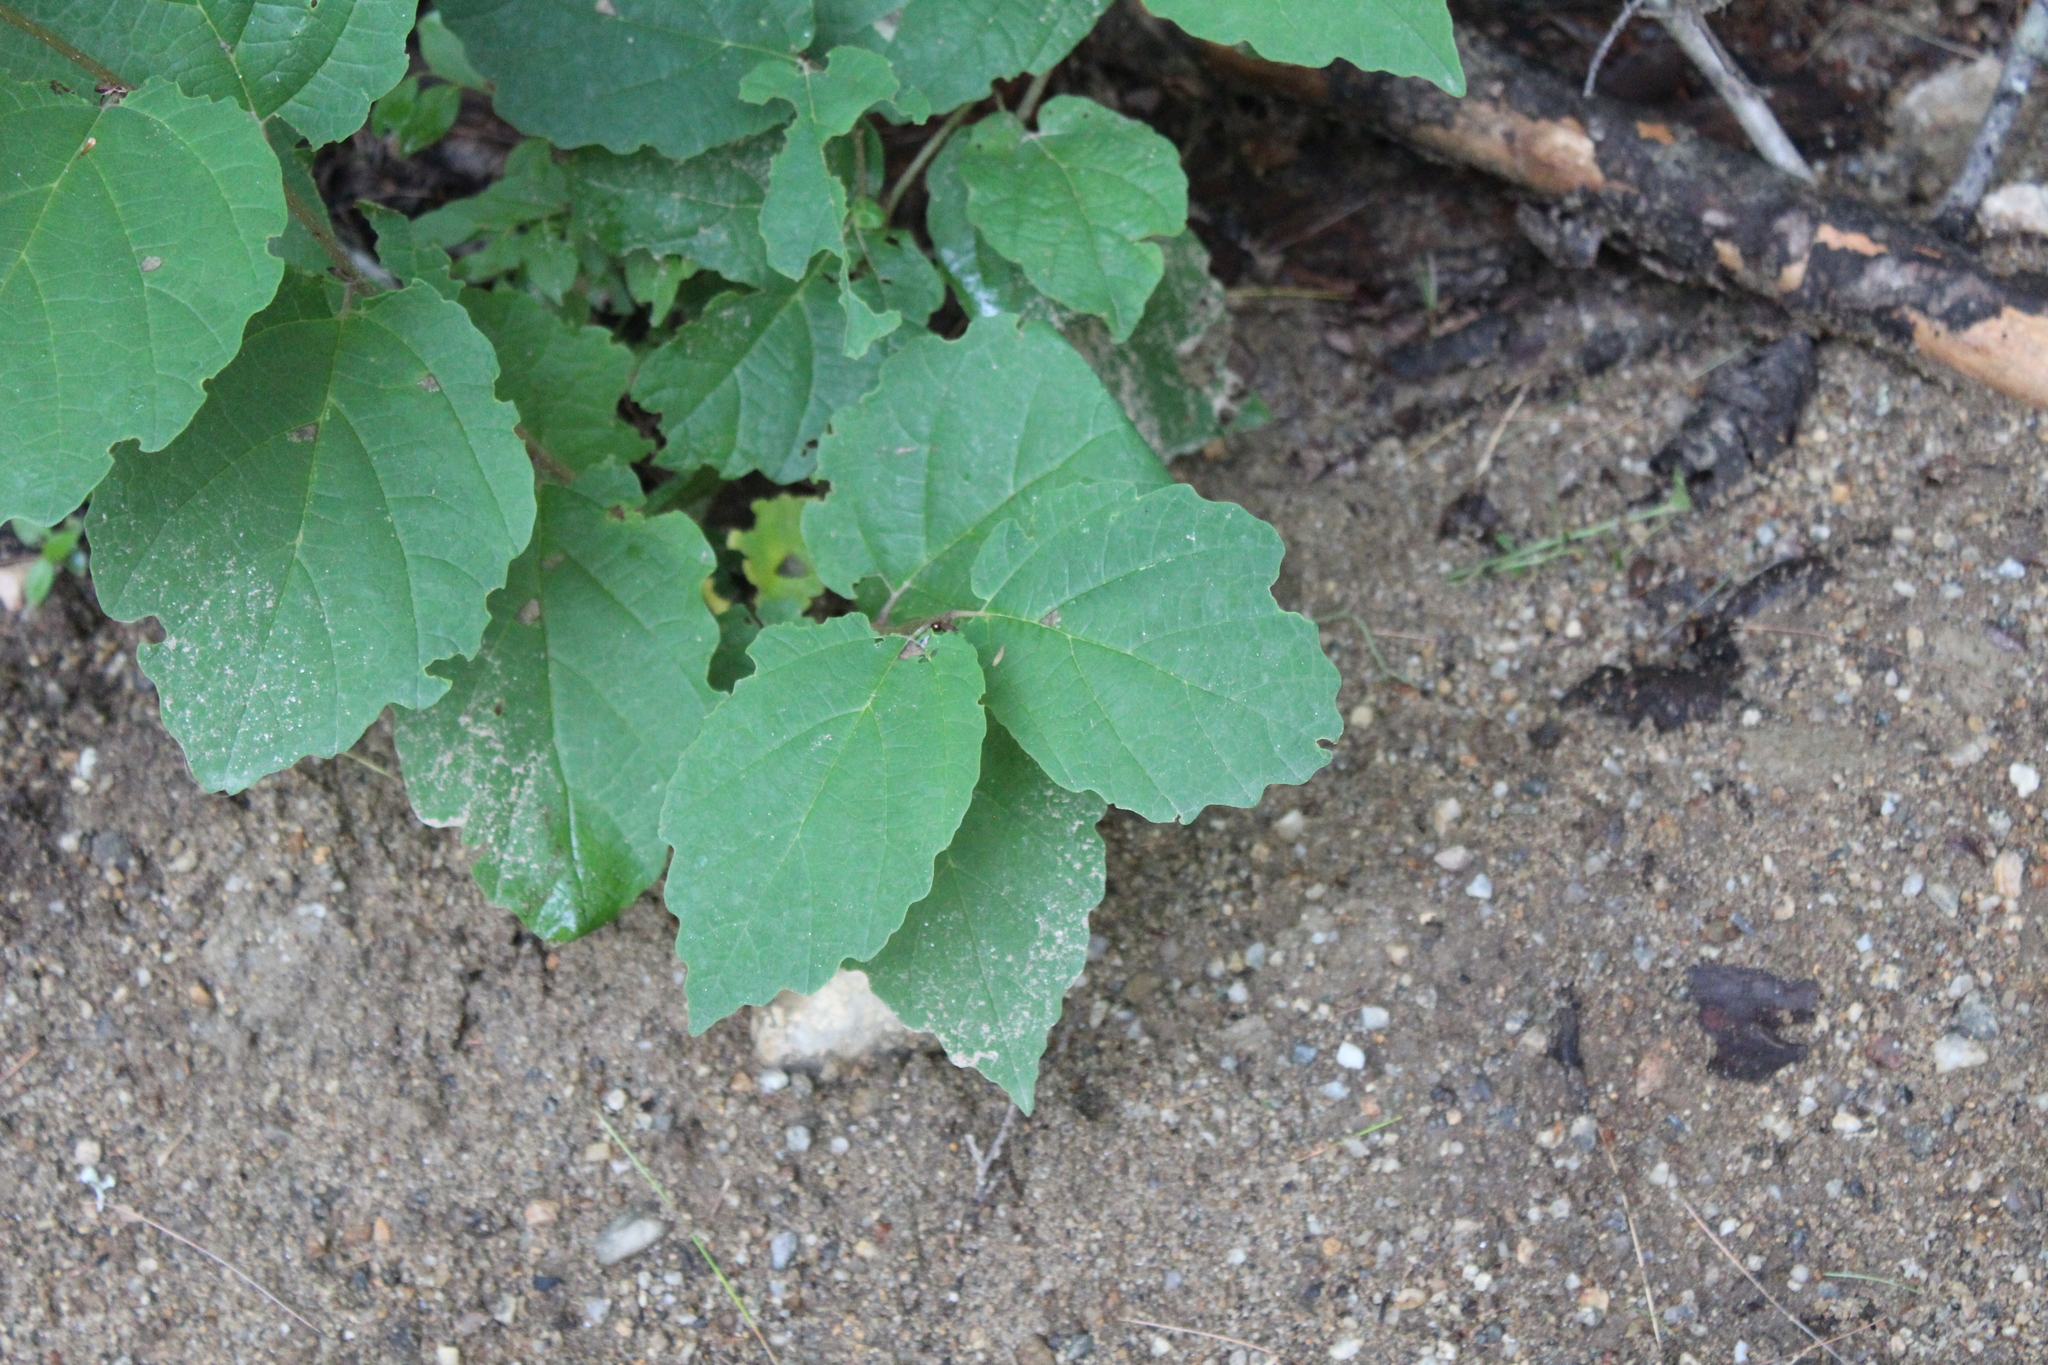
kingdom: Plantae
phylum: Tracheophyta
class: Magnoliopsida
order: Saxifragales
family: Hamamelidaceae
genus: Hamamelis
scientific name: Hamamelis virginiana
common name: Witch-hazel
